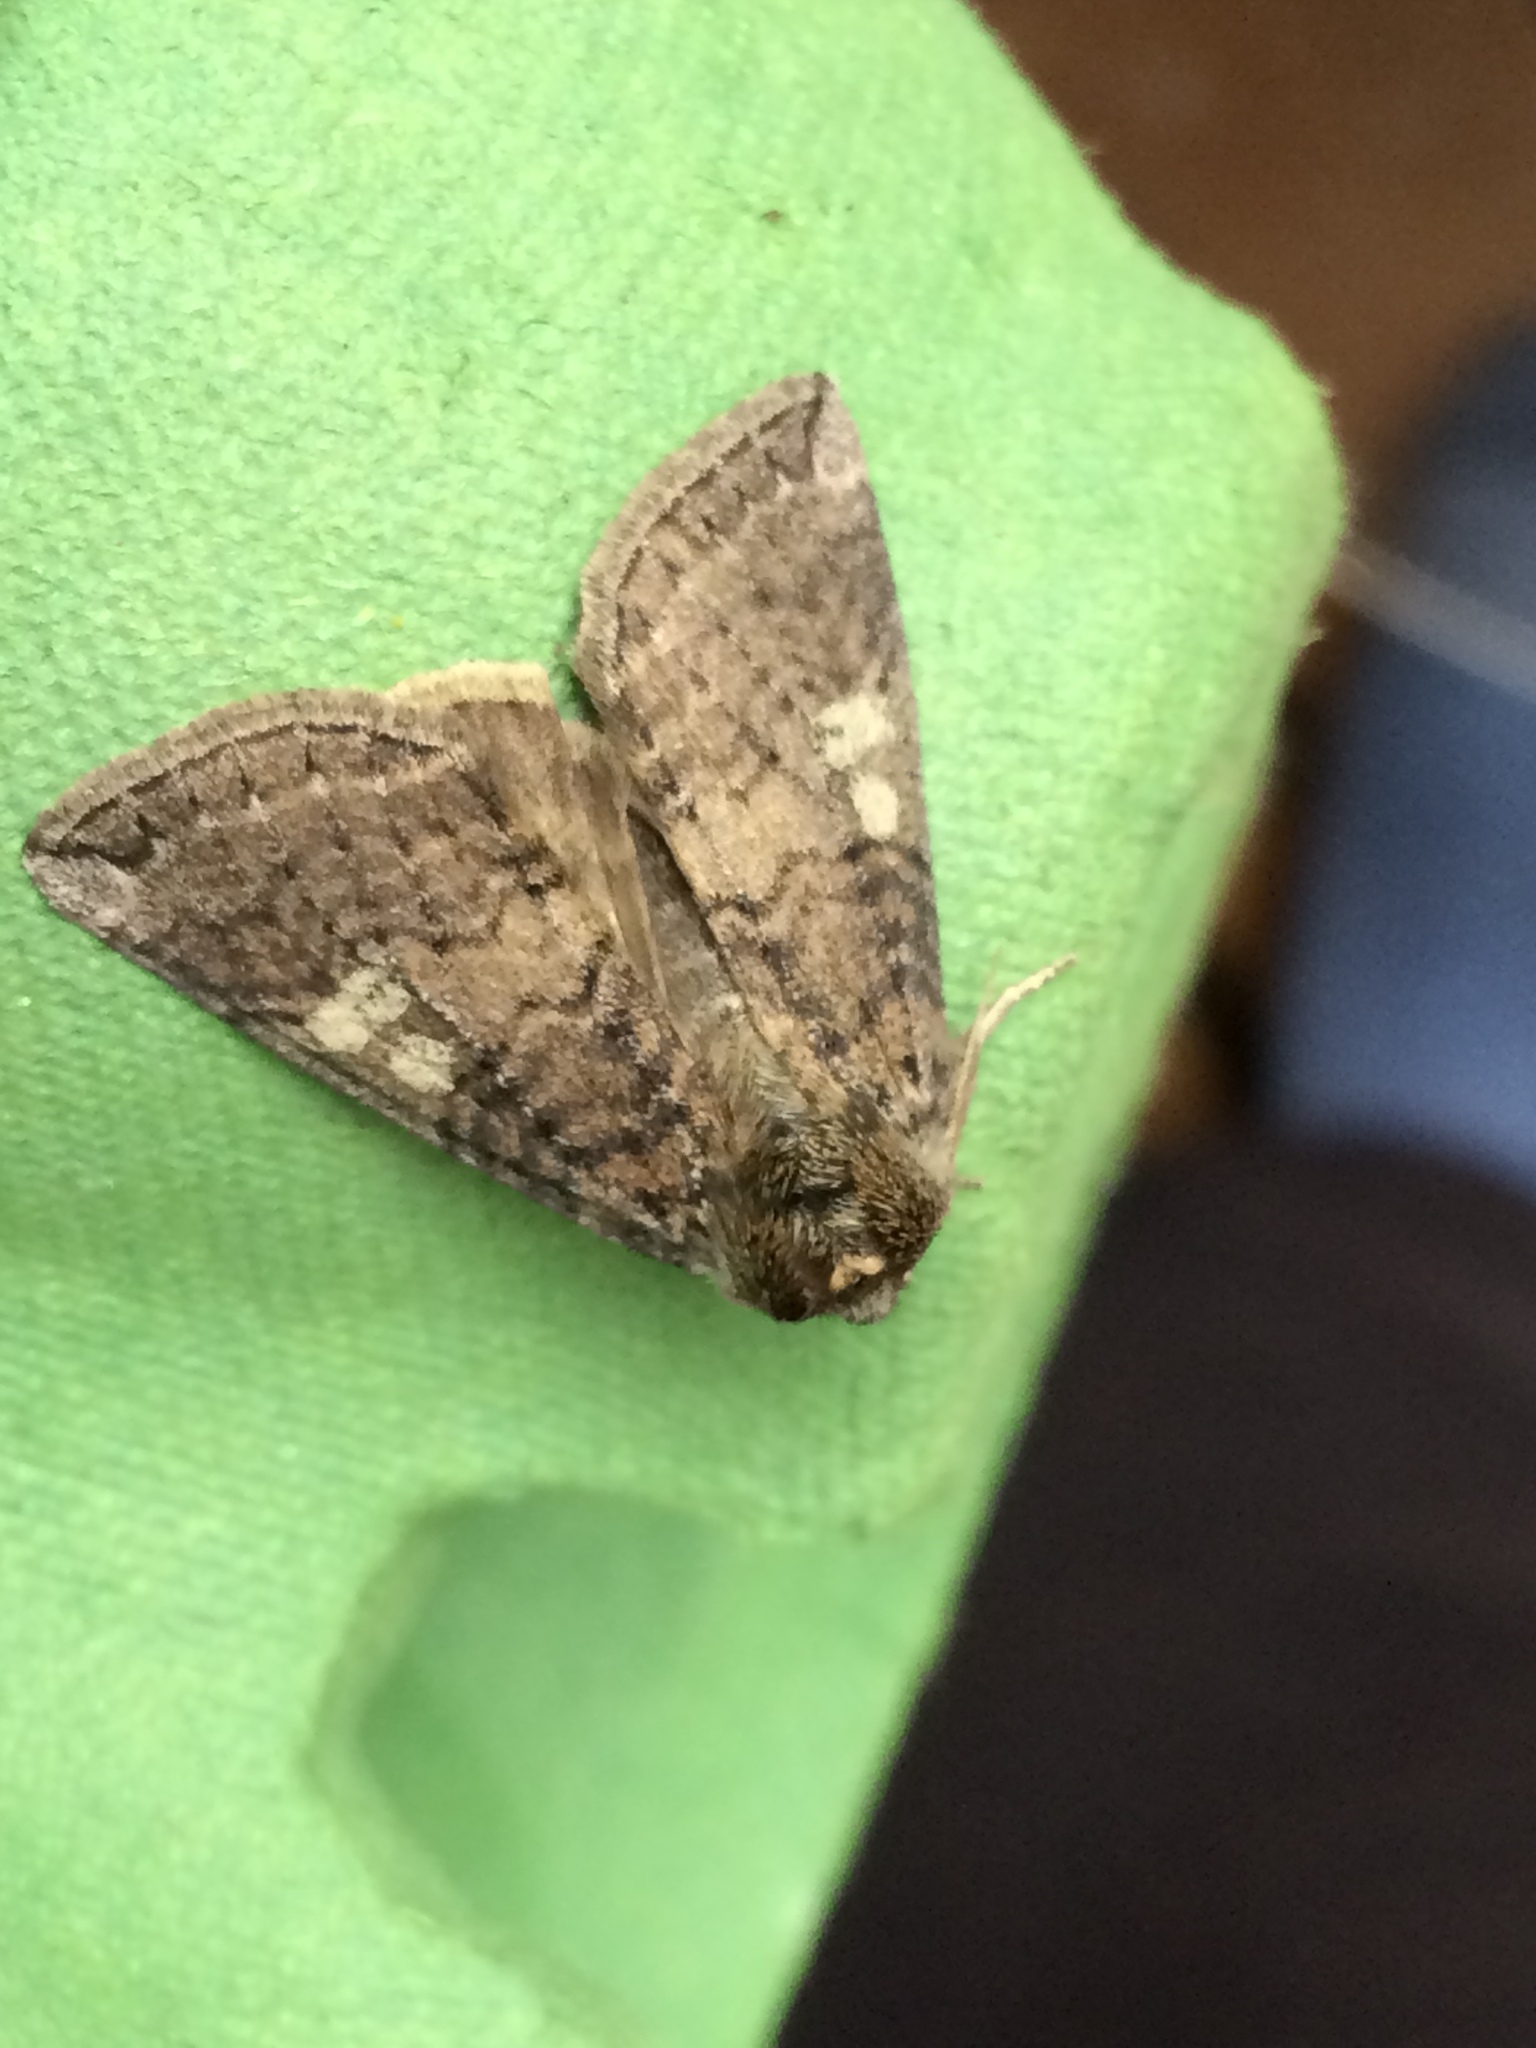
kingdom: Animalia
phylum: Arthropoda
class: Insecta
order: Lepidoptera
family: Drepanidae
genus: Tethea
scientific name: Tethea or
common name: Poplar lutestring
